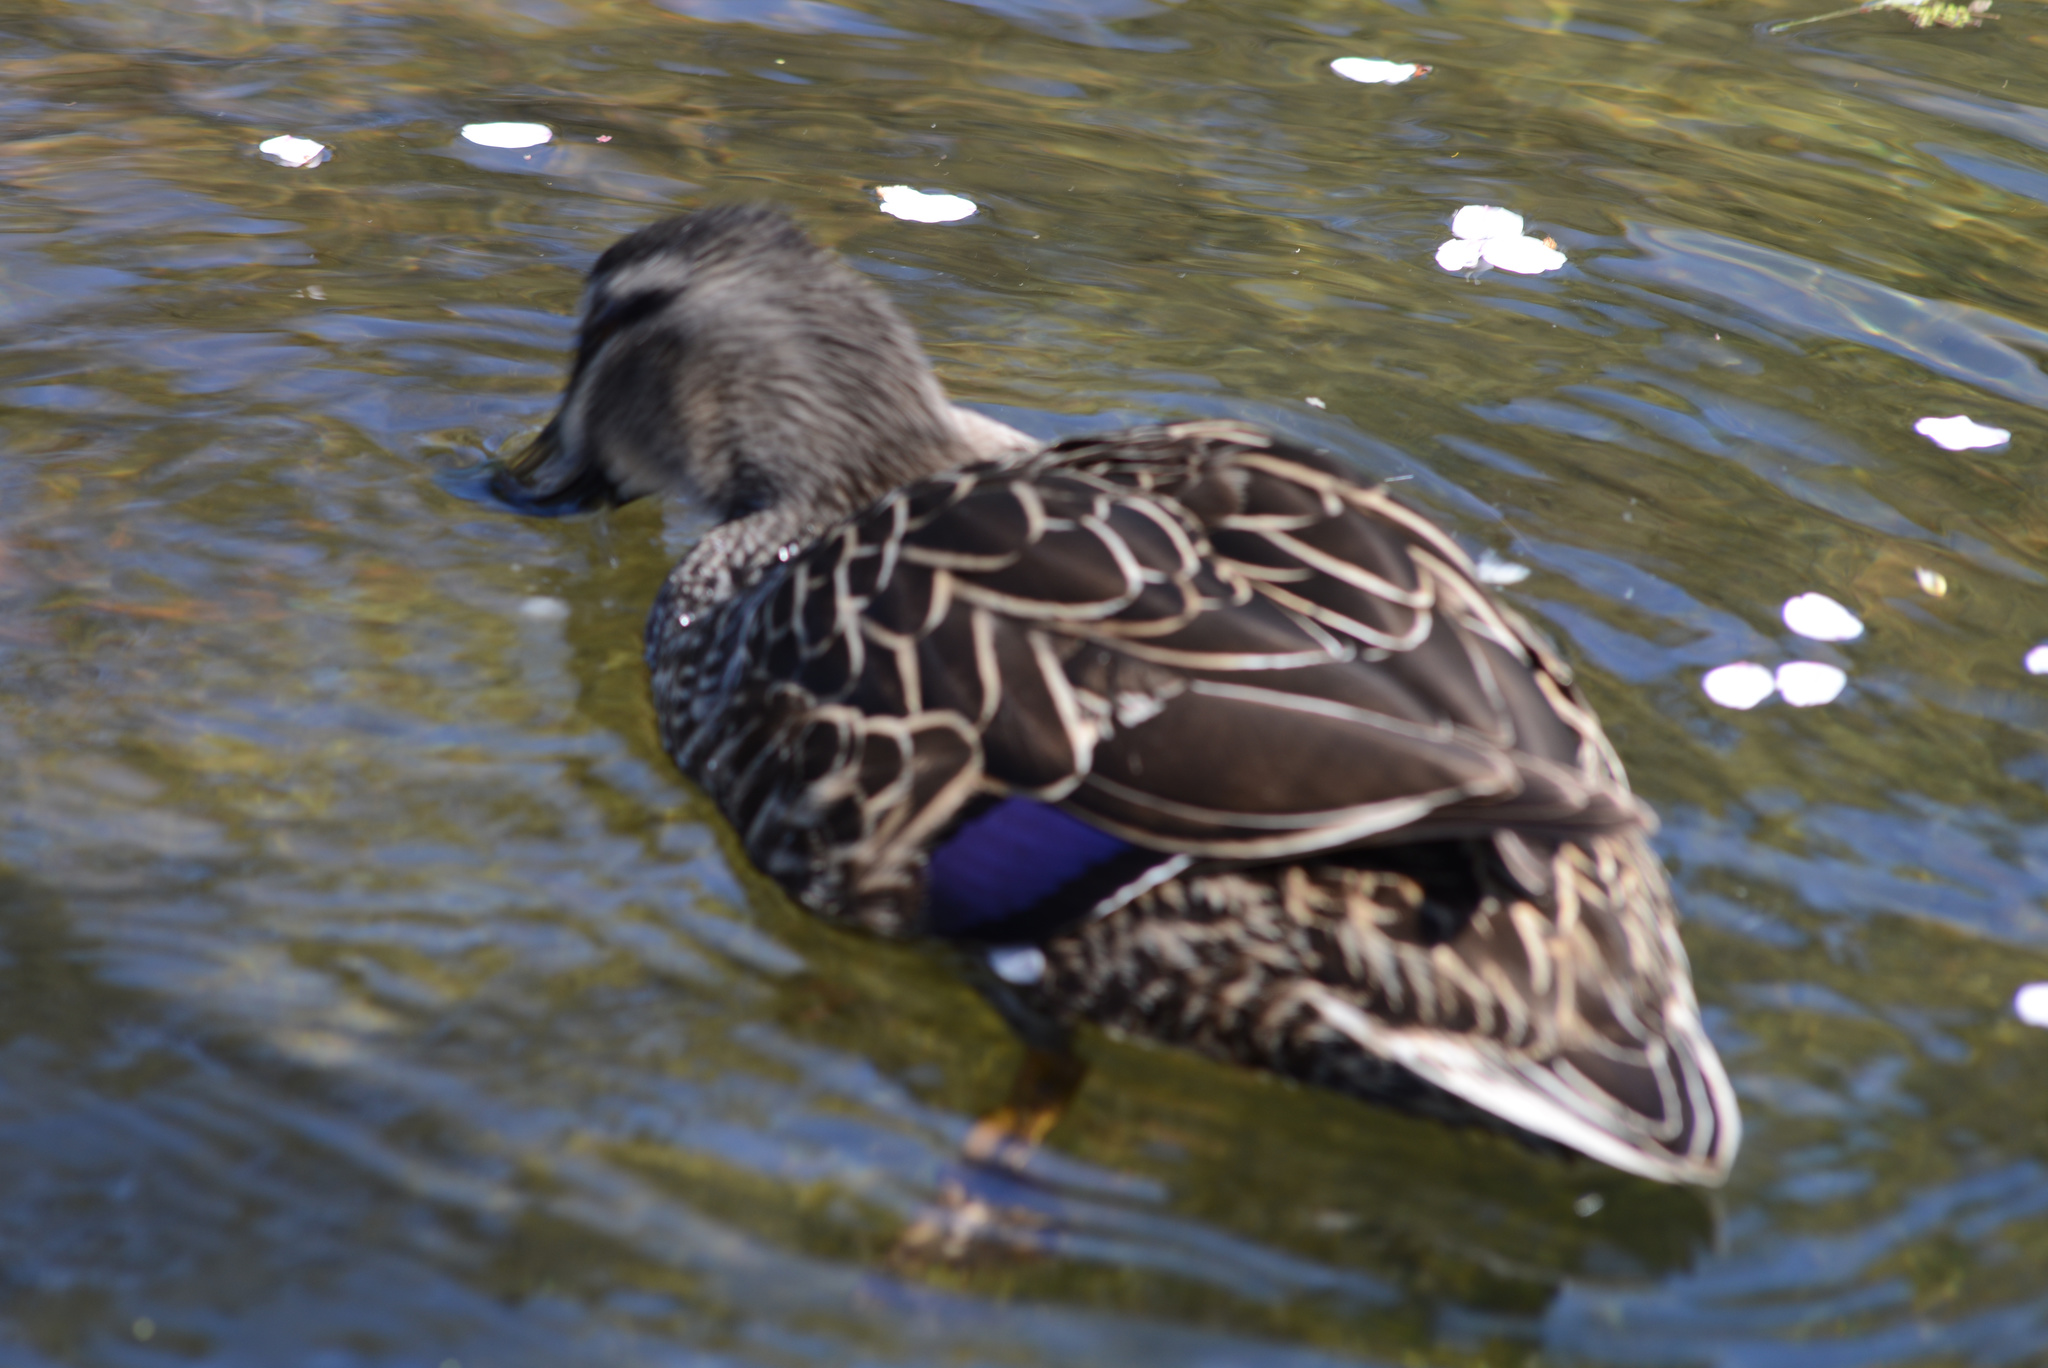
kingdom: Animalia
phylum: Chordata
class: Aves
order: Anseriformes
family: Anatidae
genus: Anas
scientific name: Anas platyrhynchos
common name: Mallard
